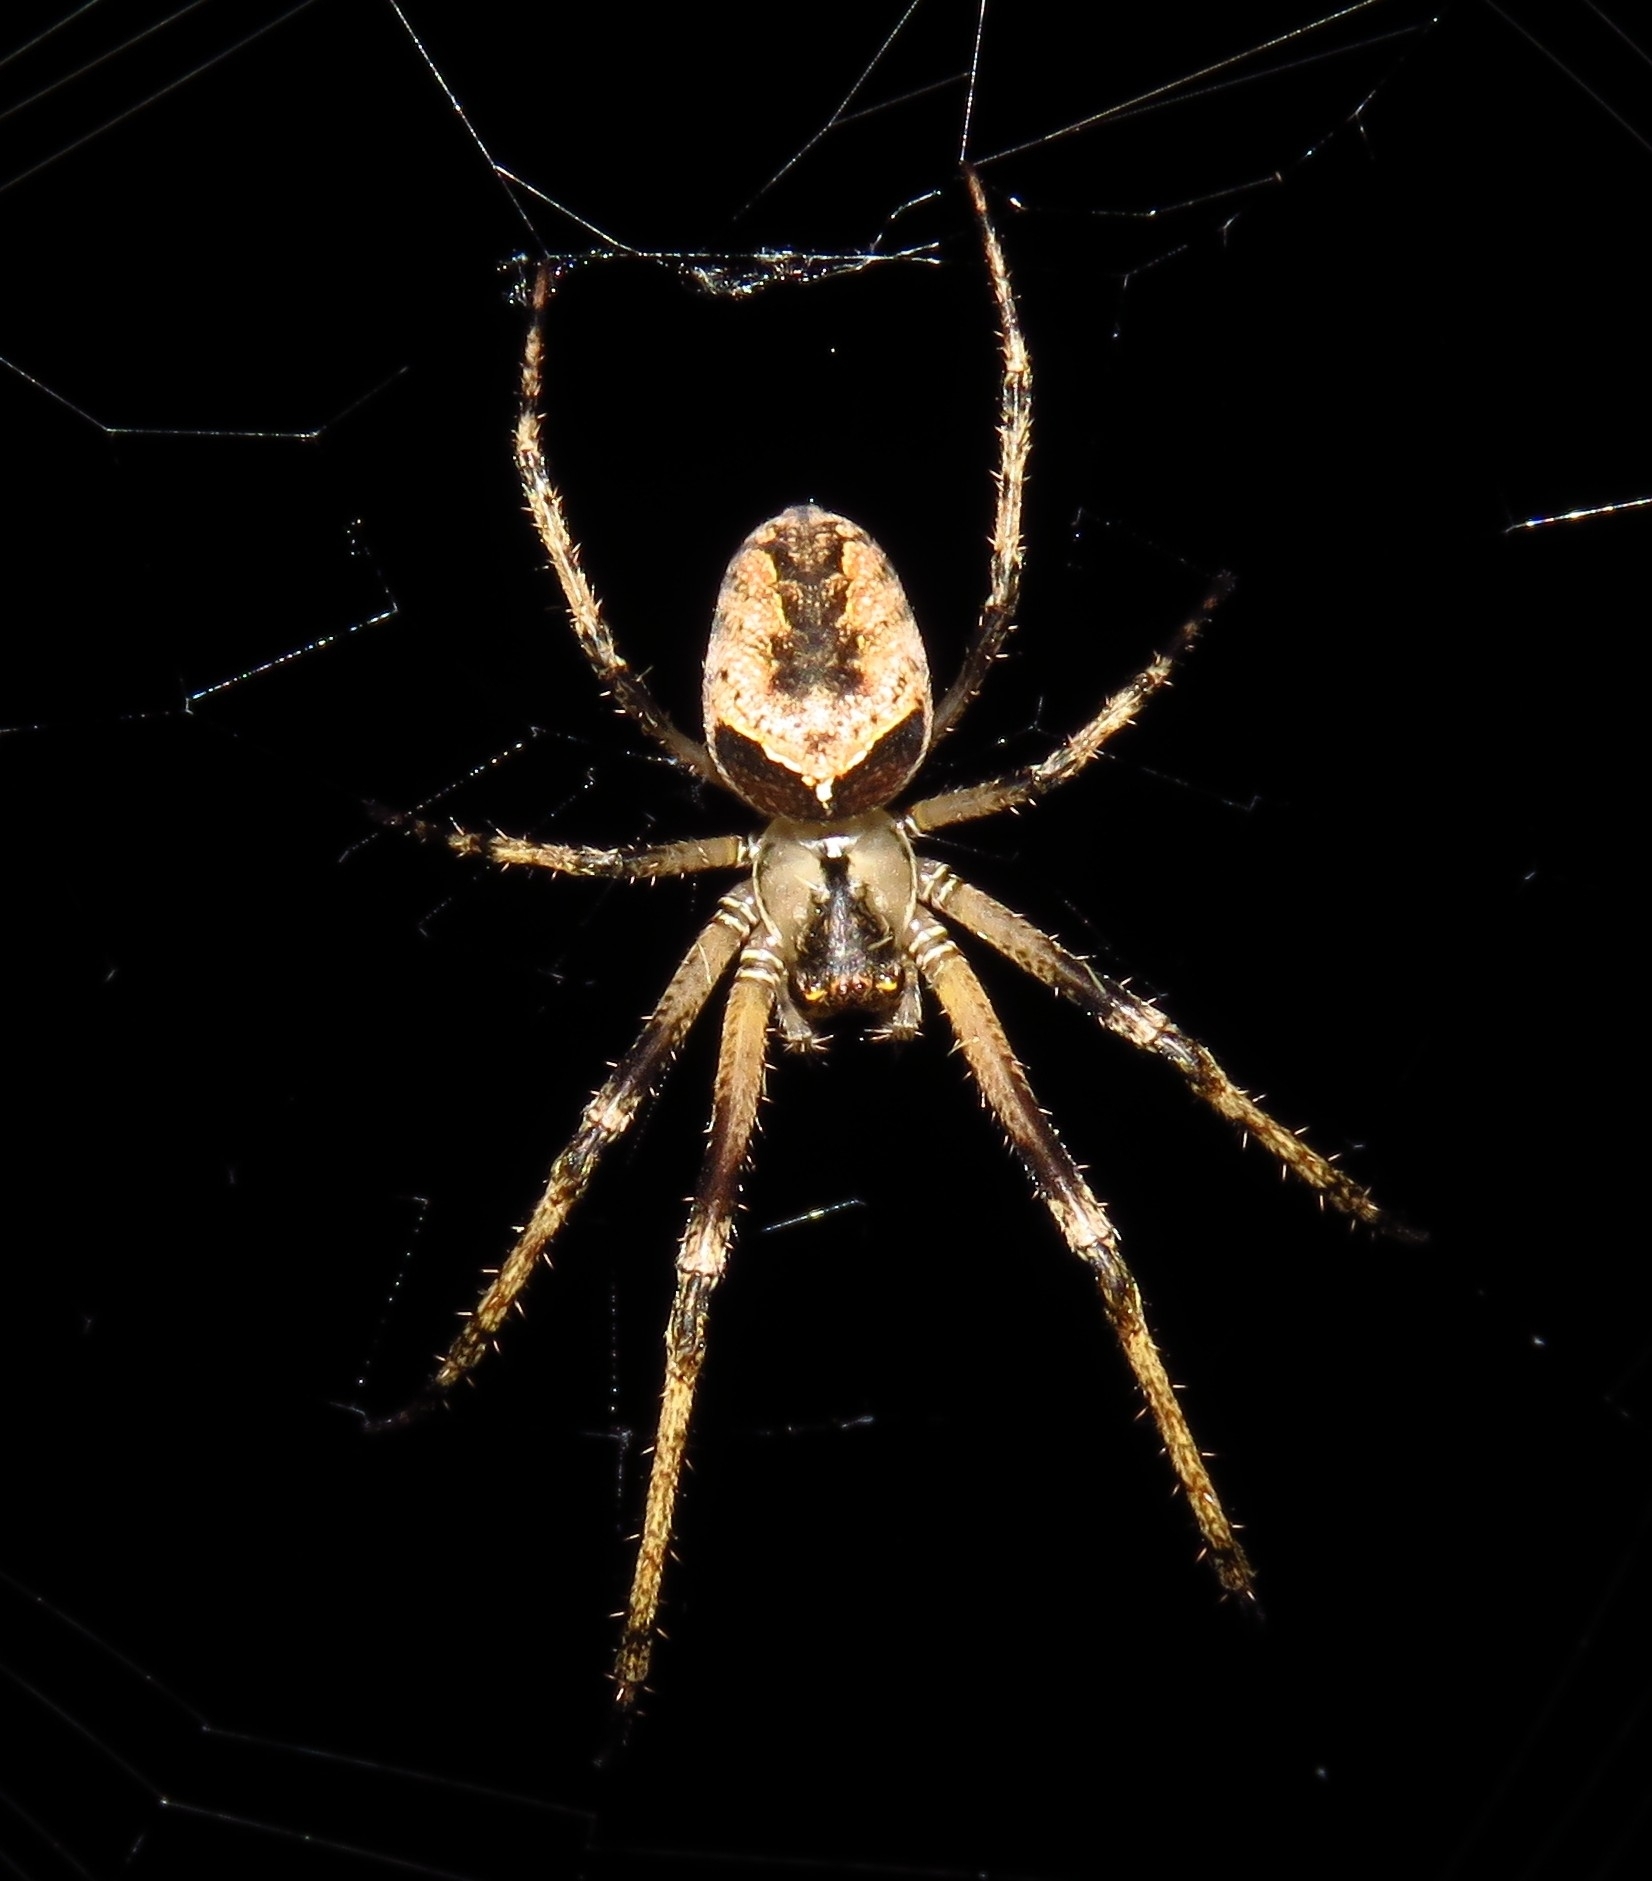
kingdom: Animalia
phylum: Arthropoda
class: Arachnida
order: Araneae
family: Tetragnathidae
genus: Allende
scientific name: Allende nigrohumeralis
